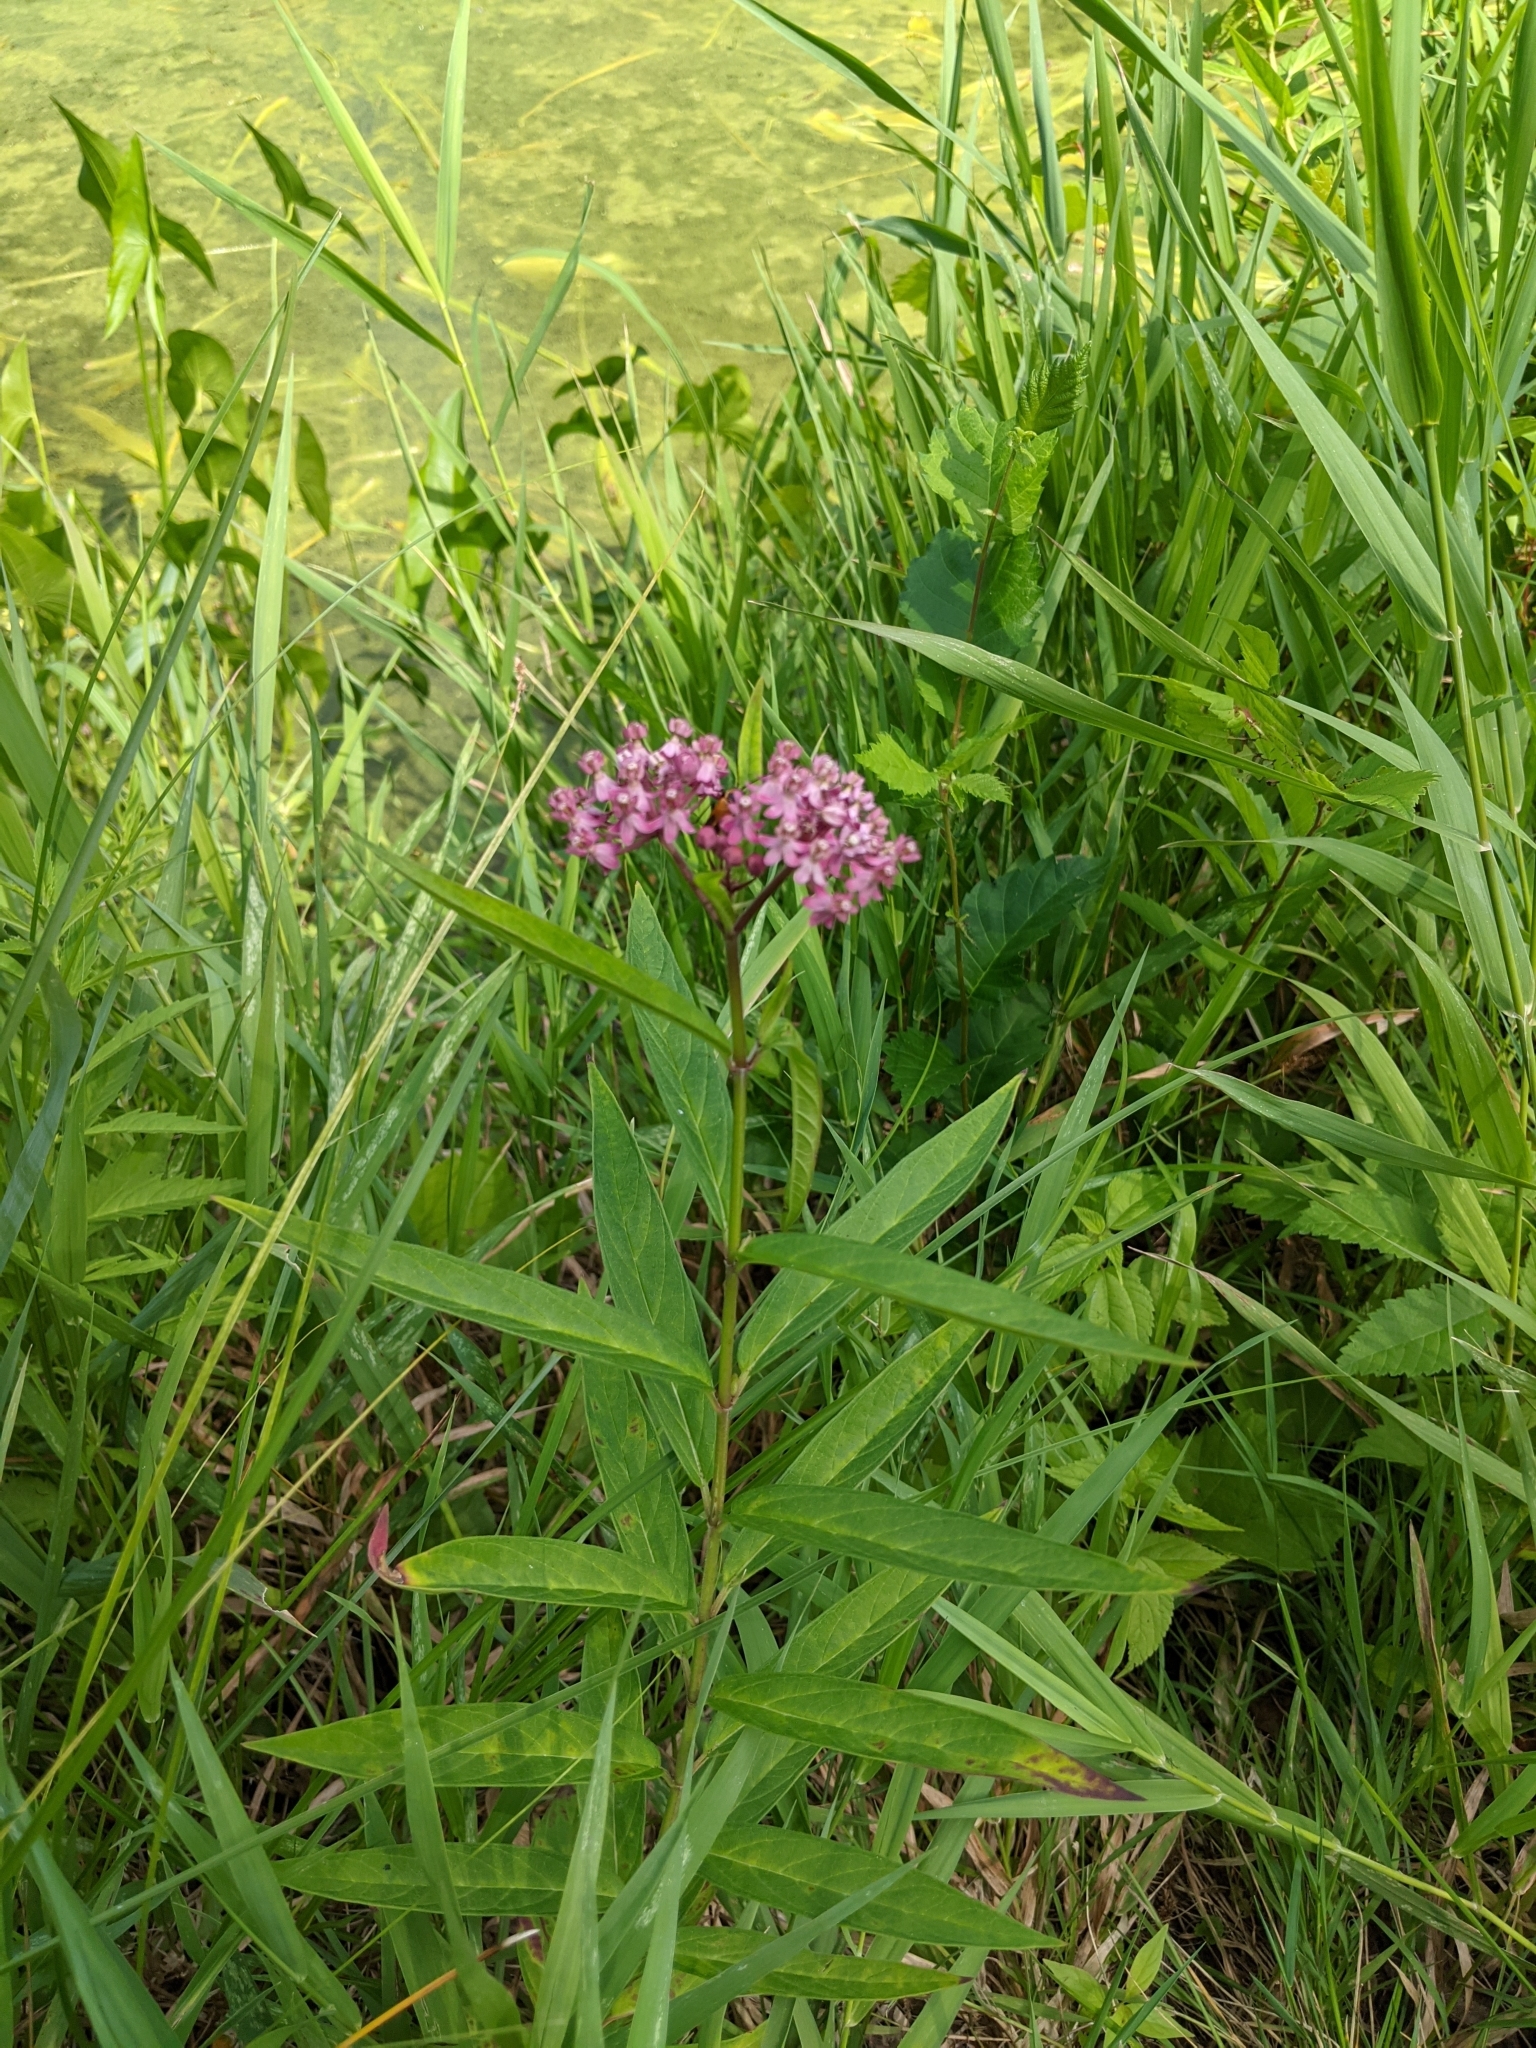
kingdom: Plantae
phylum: Tracheophyta
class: Magnoliopsida
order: Gentianales
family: Apocynaceae
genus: Asclepias
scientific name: Asclepias incarnata
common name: Swamp milkweed
